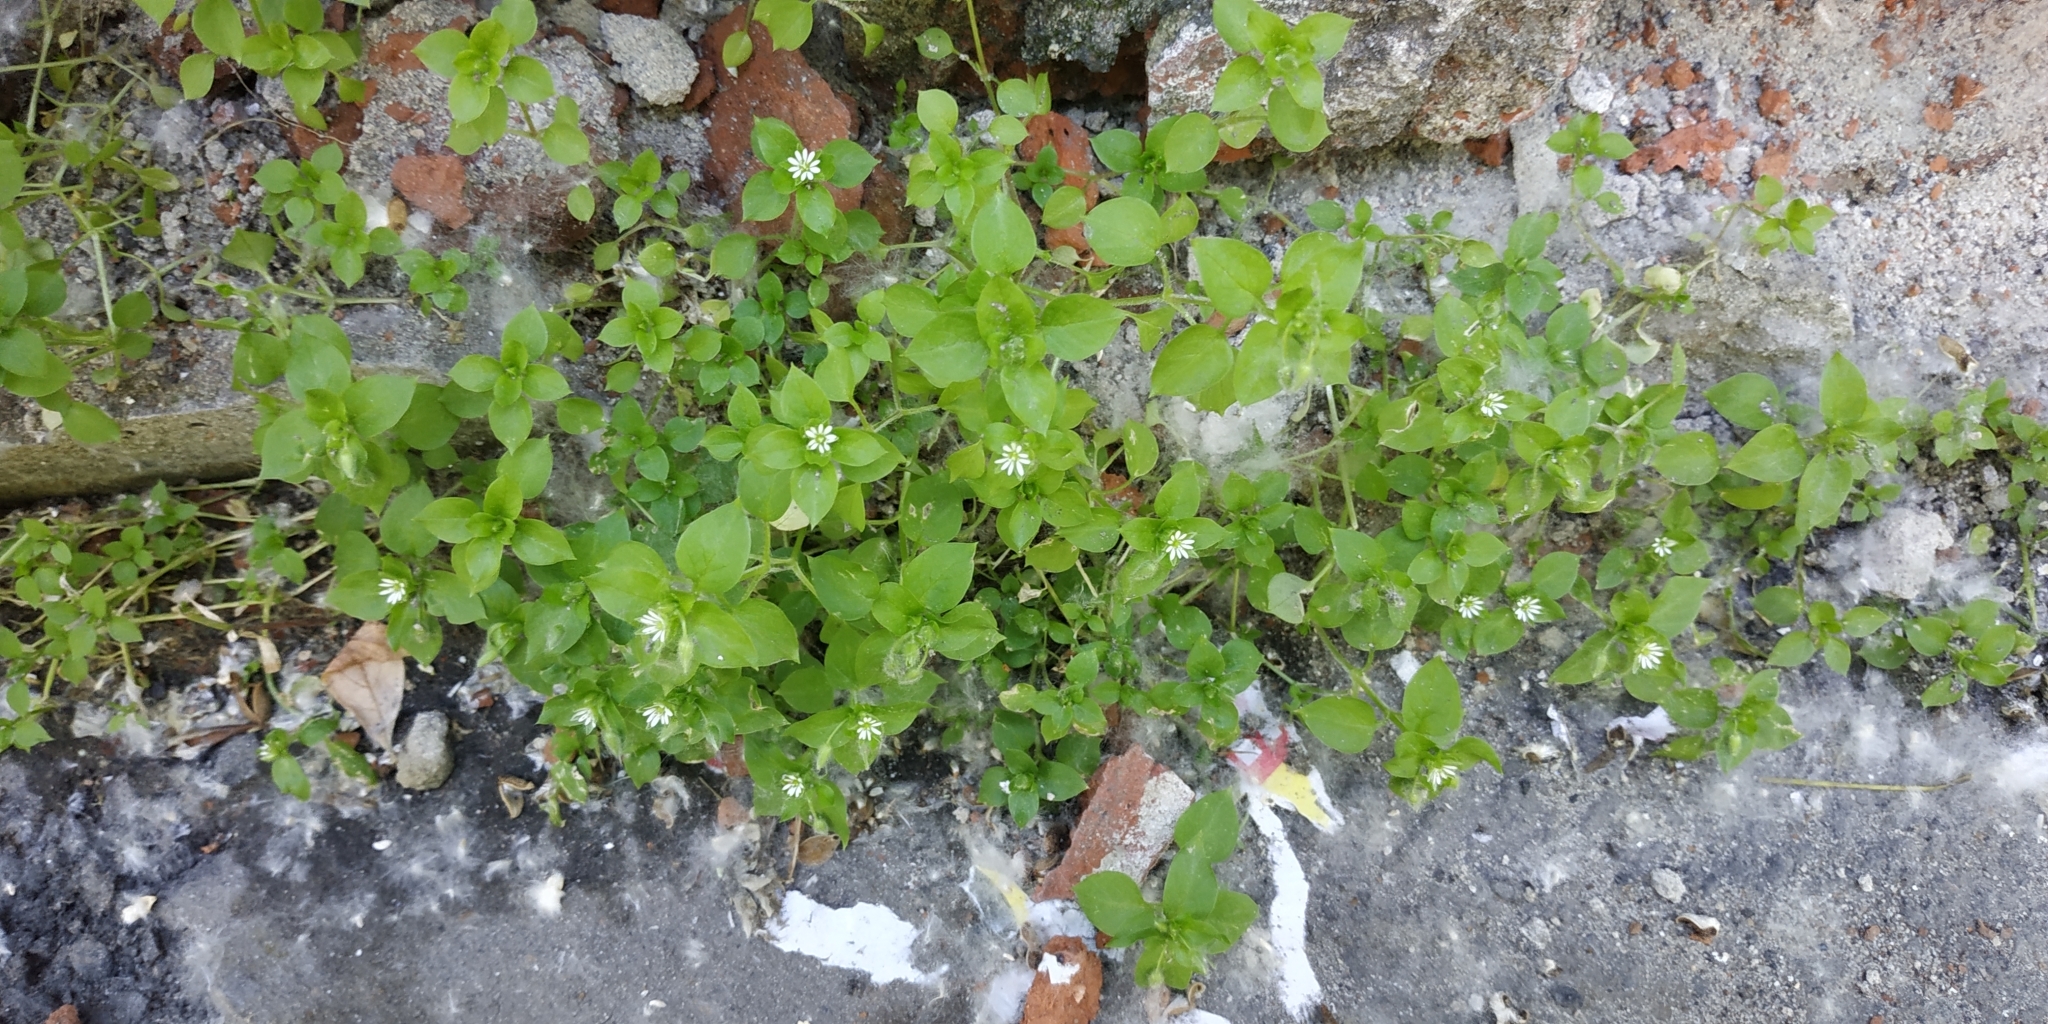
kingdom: Plantae
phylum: Tracheophyta
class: Magnoliopsida
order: Caryophyllales
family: Caryophyllaceae
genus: Stellaria
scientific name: Stellaria media
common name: Common chickweed
